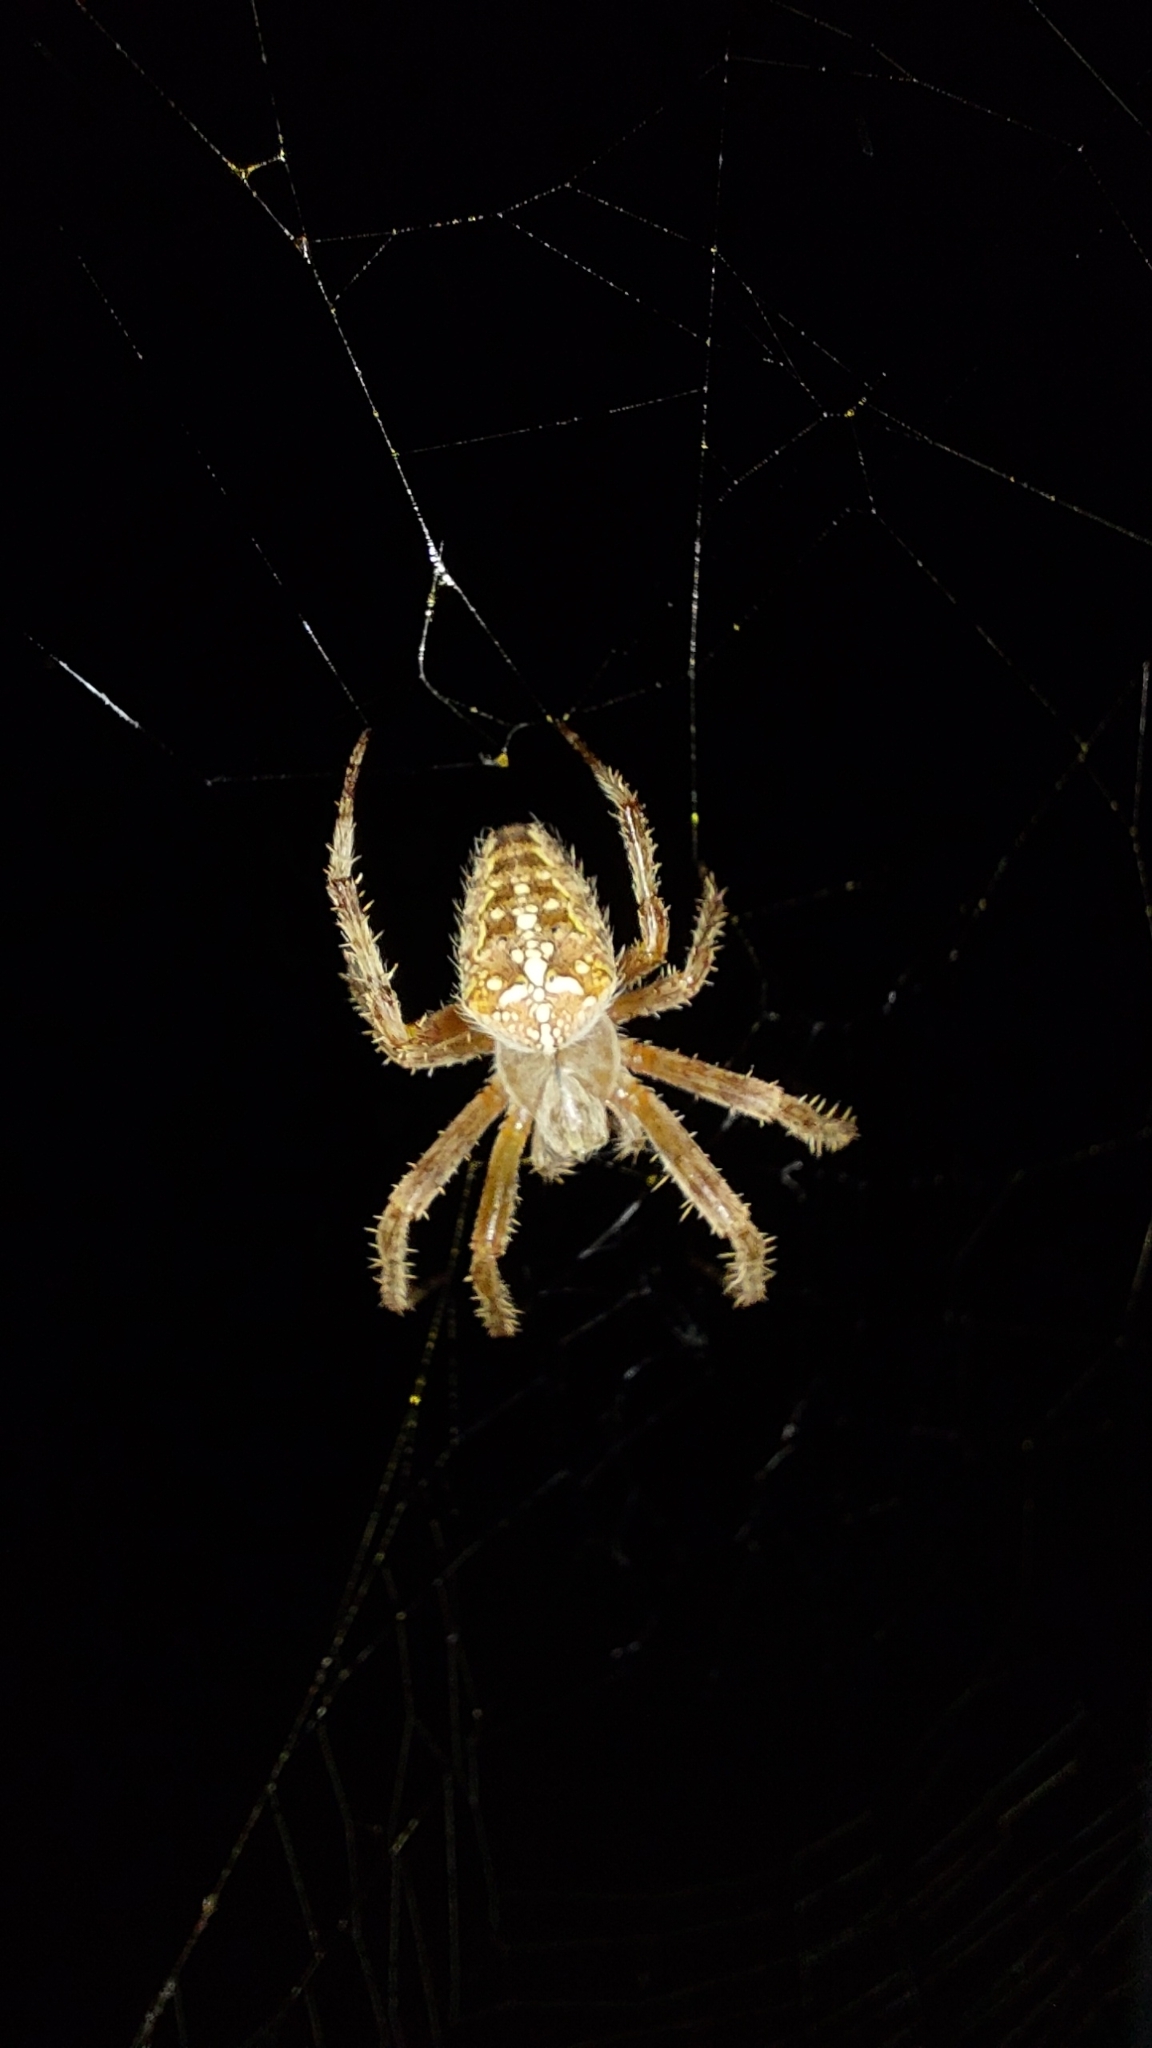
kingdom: Animalia
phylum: Arthropoda
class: Arachnida
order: Araneae
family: Araneidae
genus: Araneus
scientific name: Araneus diadematus
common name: Cross orbweaver
